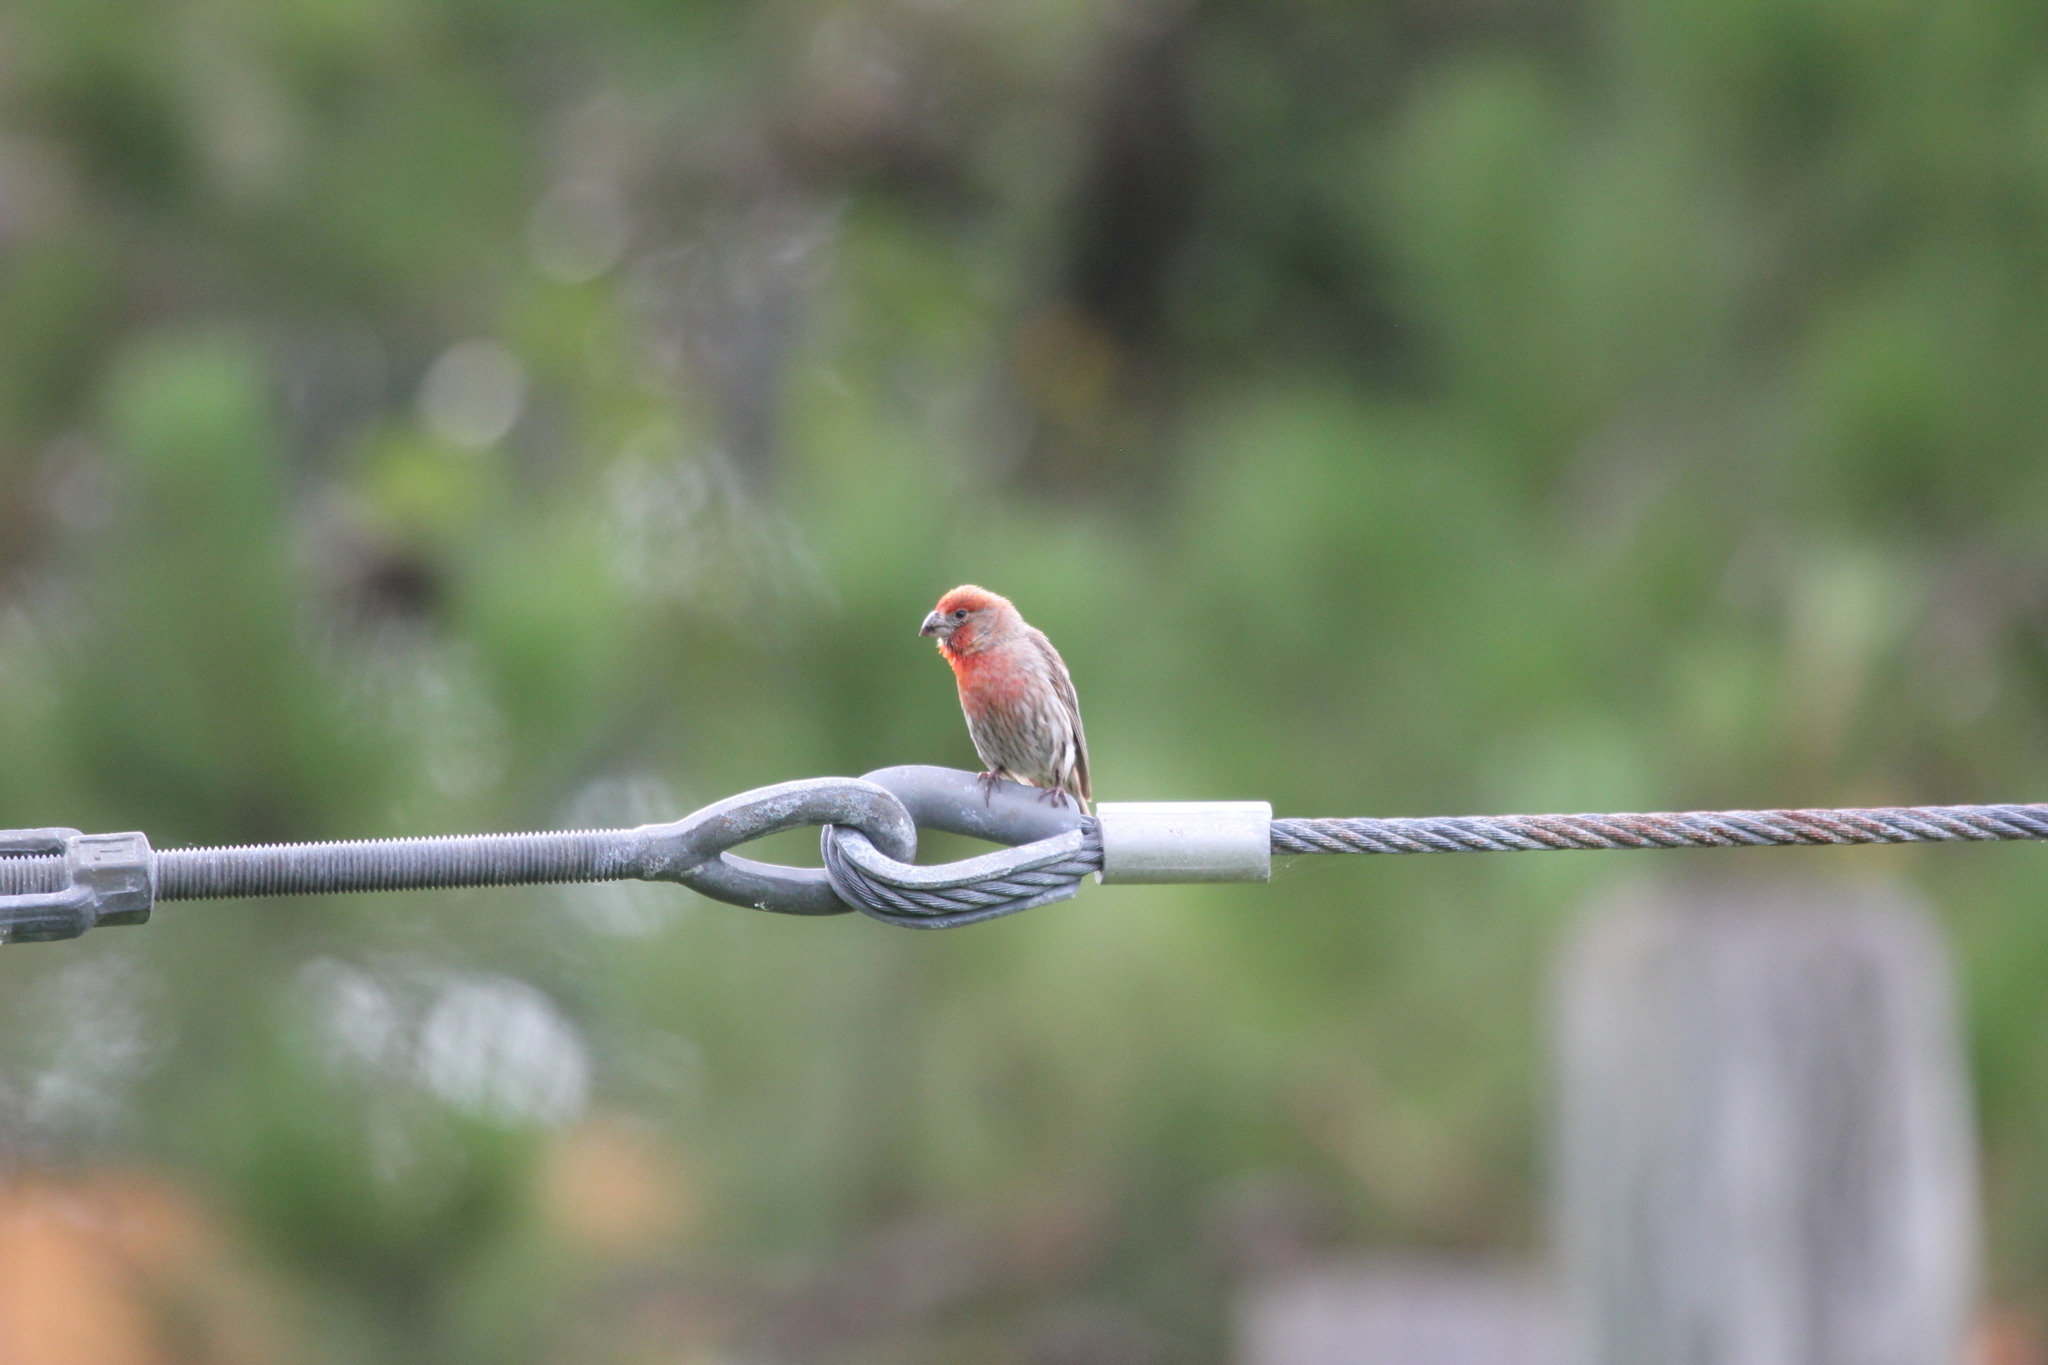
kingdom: Animalia
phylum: Chordata
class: Aves
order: Passeriformes
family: Fringillidae
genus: Haemorhous
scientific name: Haemorhous mexicanus
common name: House finch
